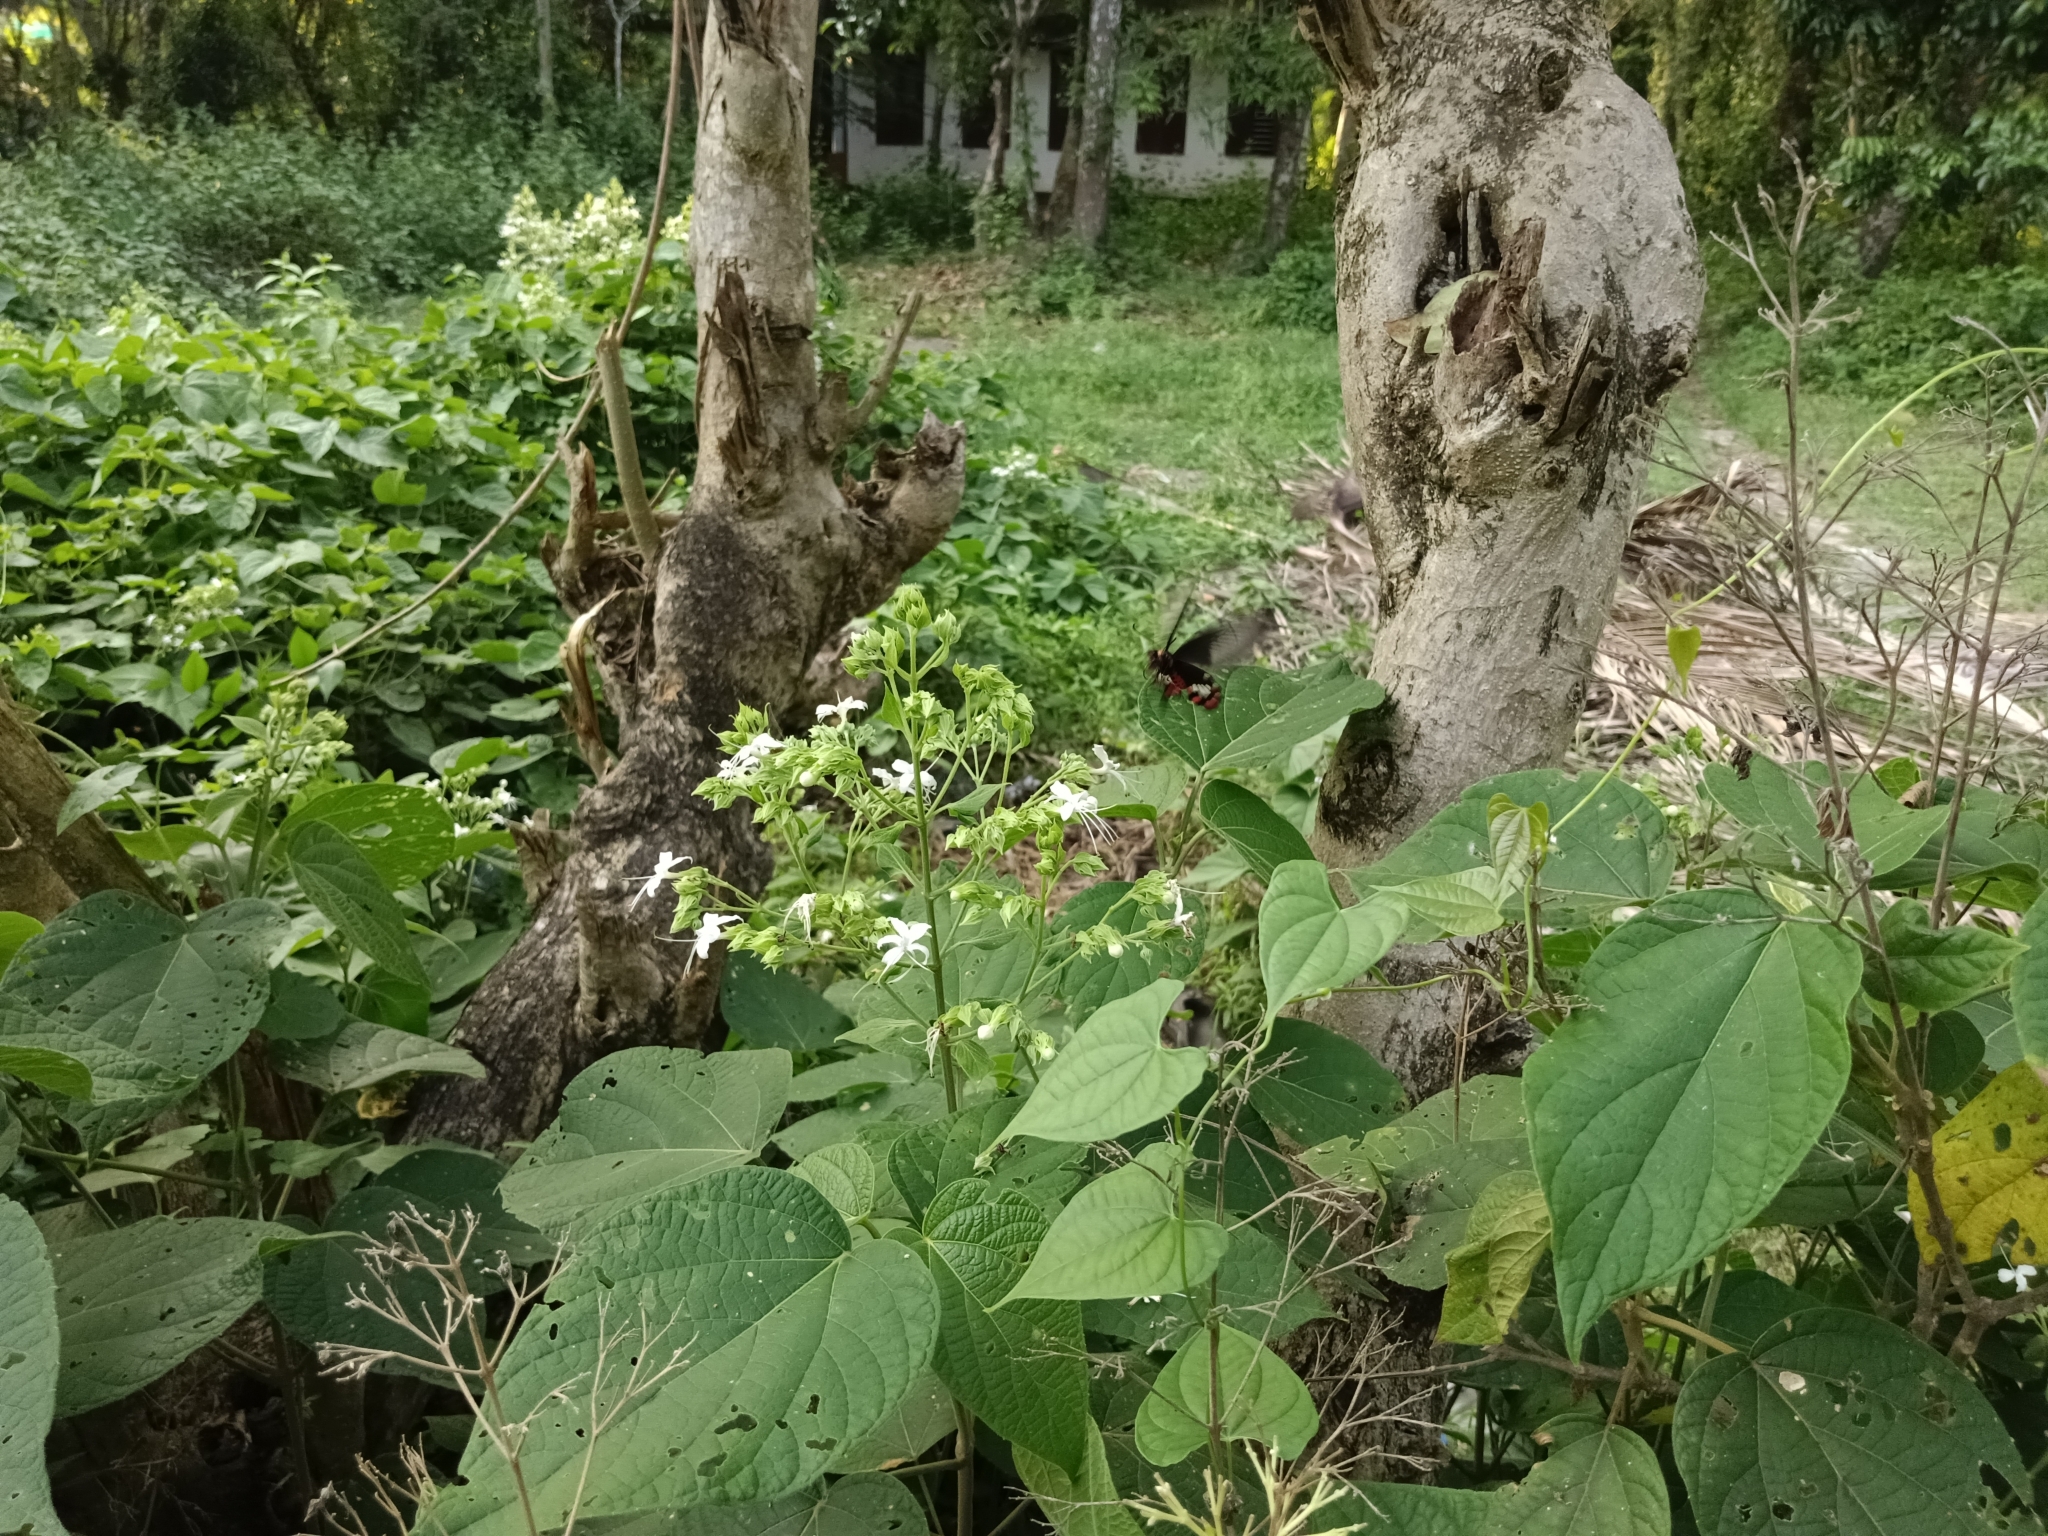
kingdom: Plantae
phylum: Tracheophyta
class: Magnoliopsida
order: Lamiales
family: Lamiaceae
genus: Clerodendrum
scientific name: Clerodendrum infortunatum
